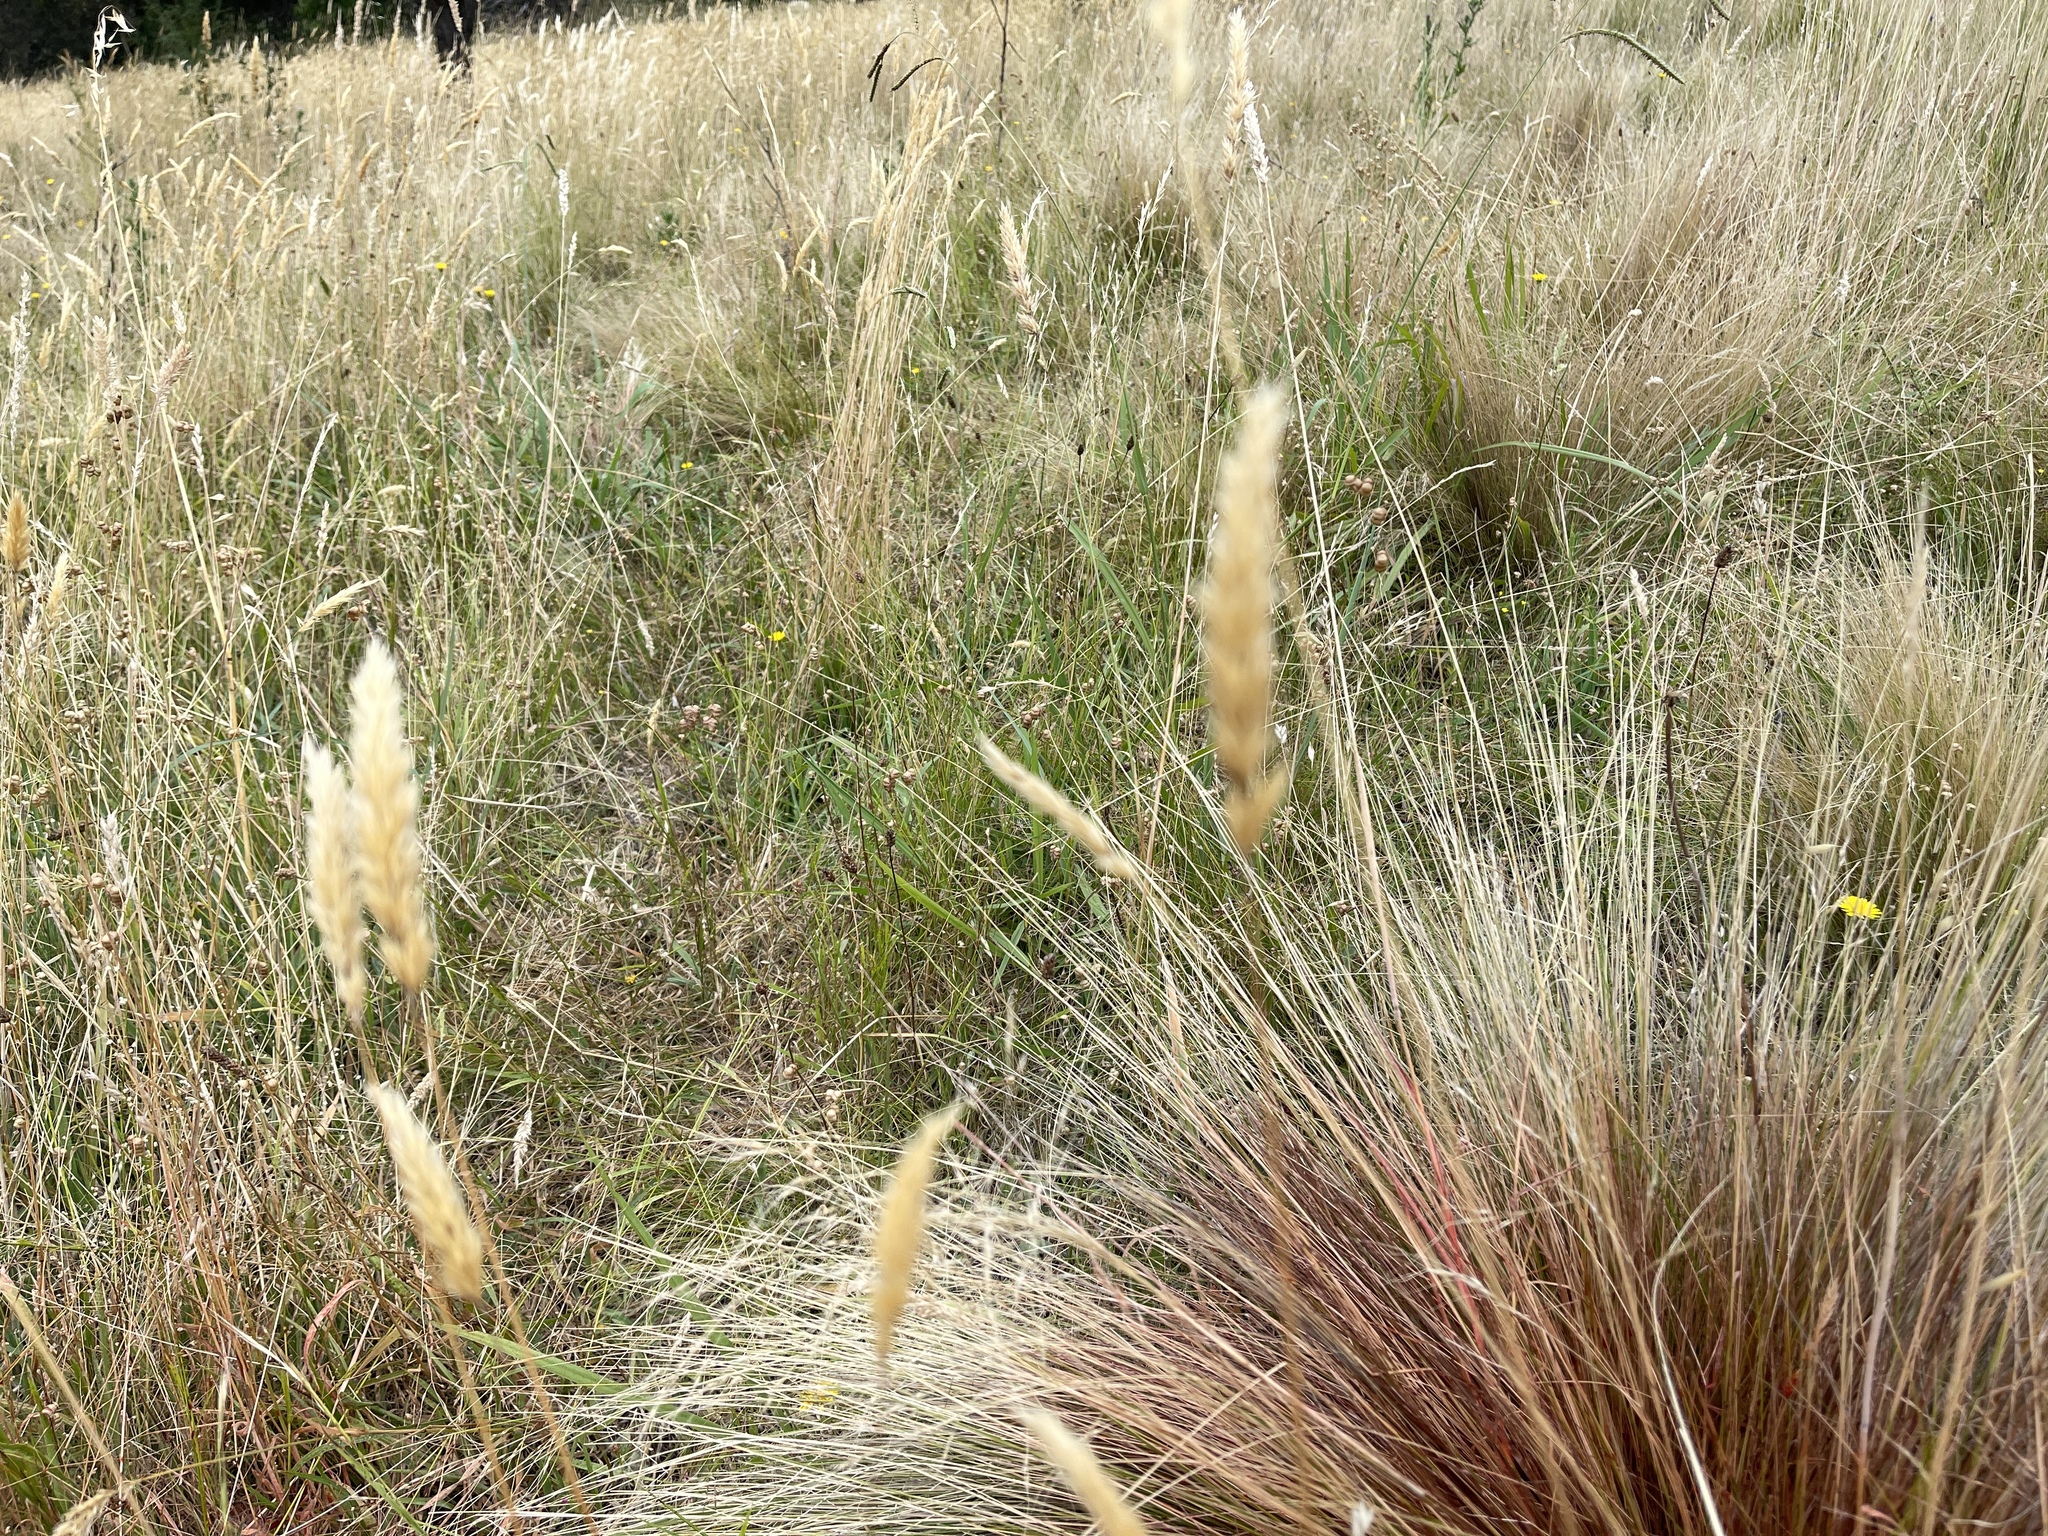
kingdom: Plantae
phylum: Tracheophyta
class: Liliopsida
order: Poales
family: Poaceae
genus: Anthoxanthum
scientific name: Anthoxanthum odoratum
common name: Sweet vernalgrass
